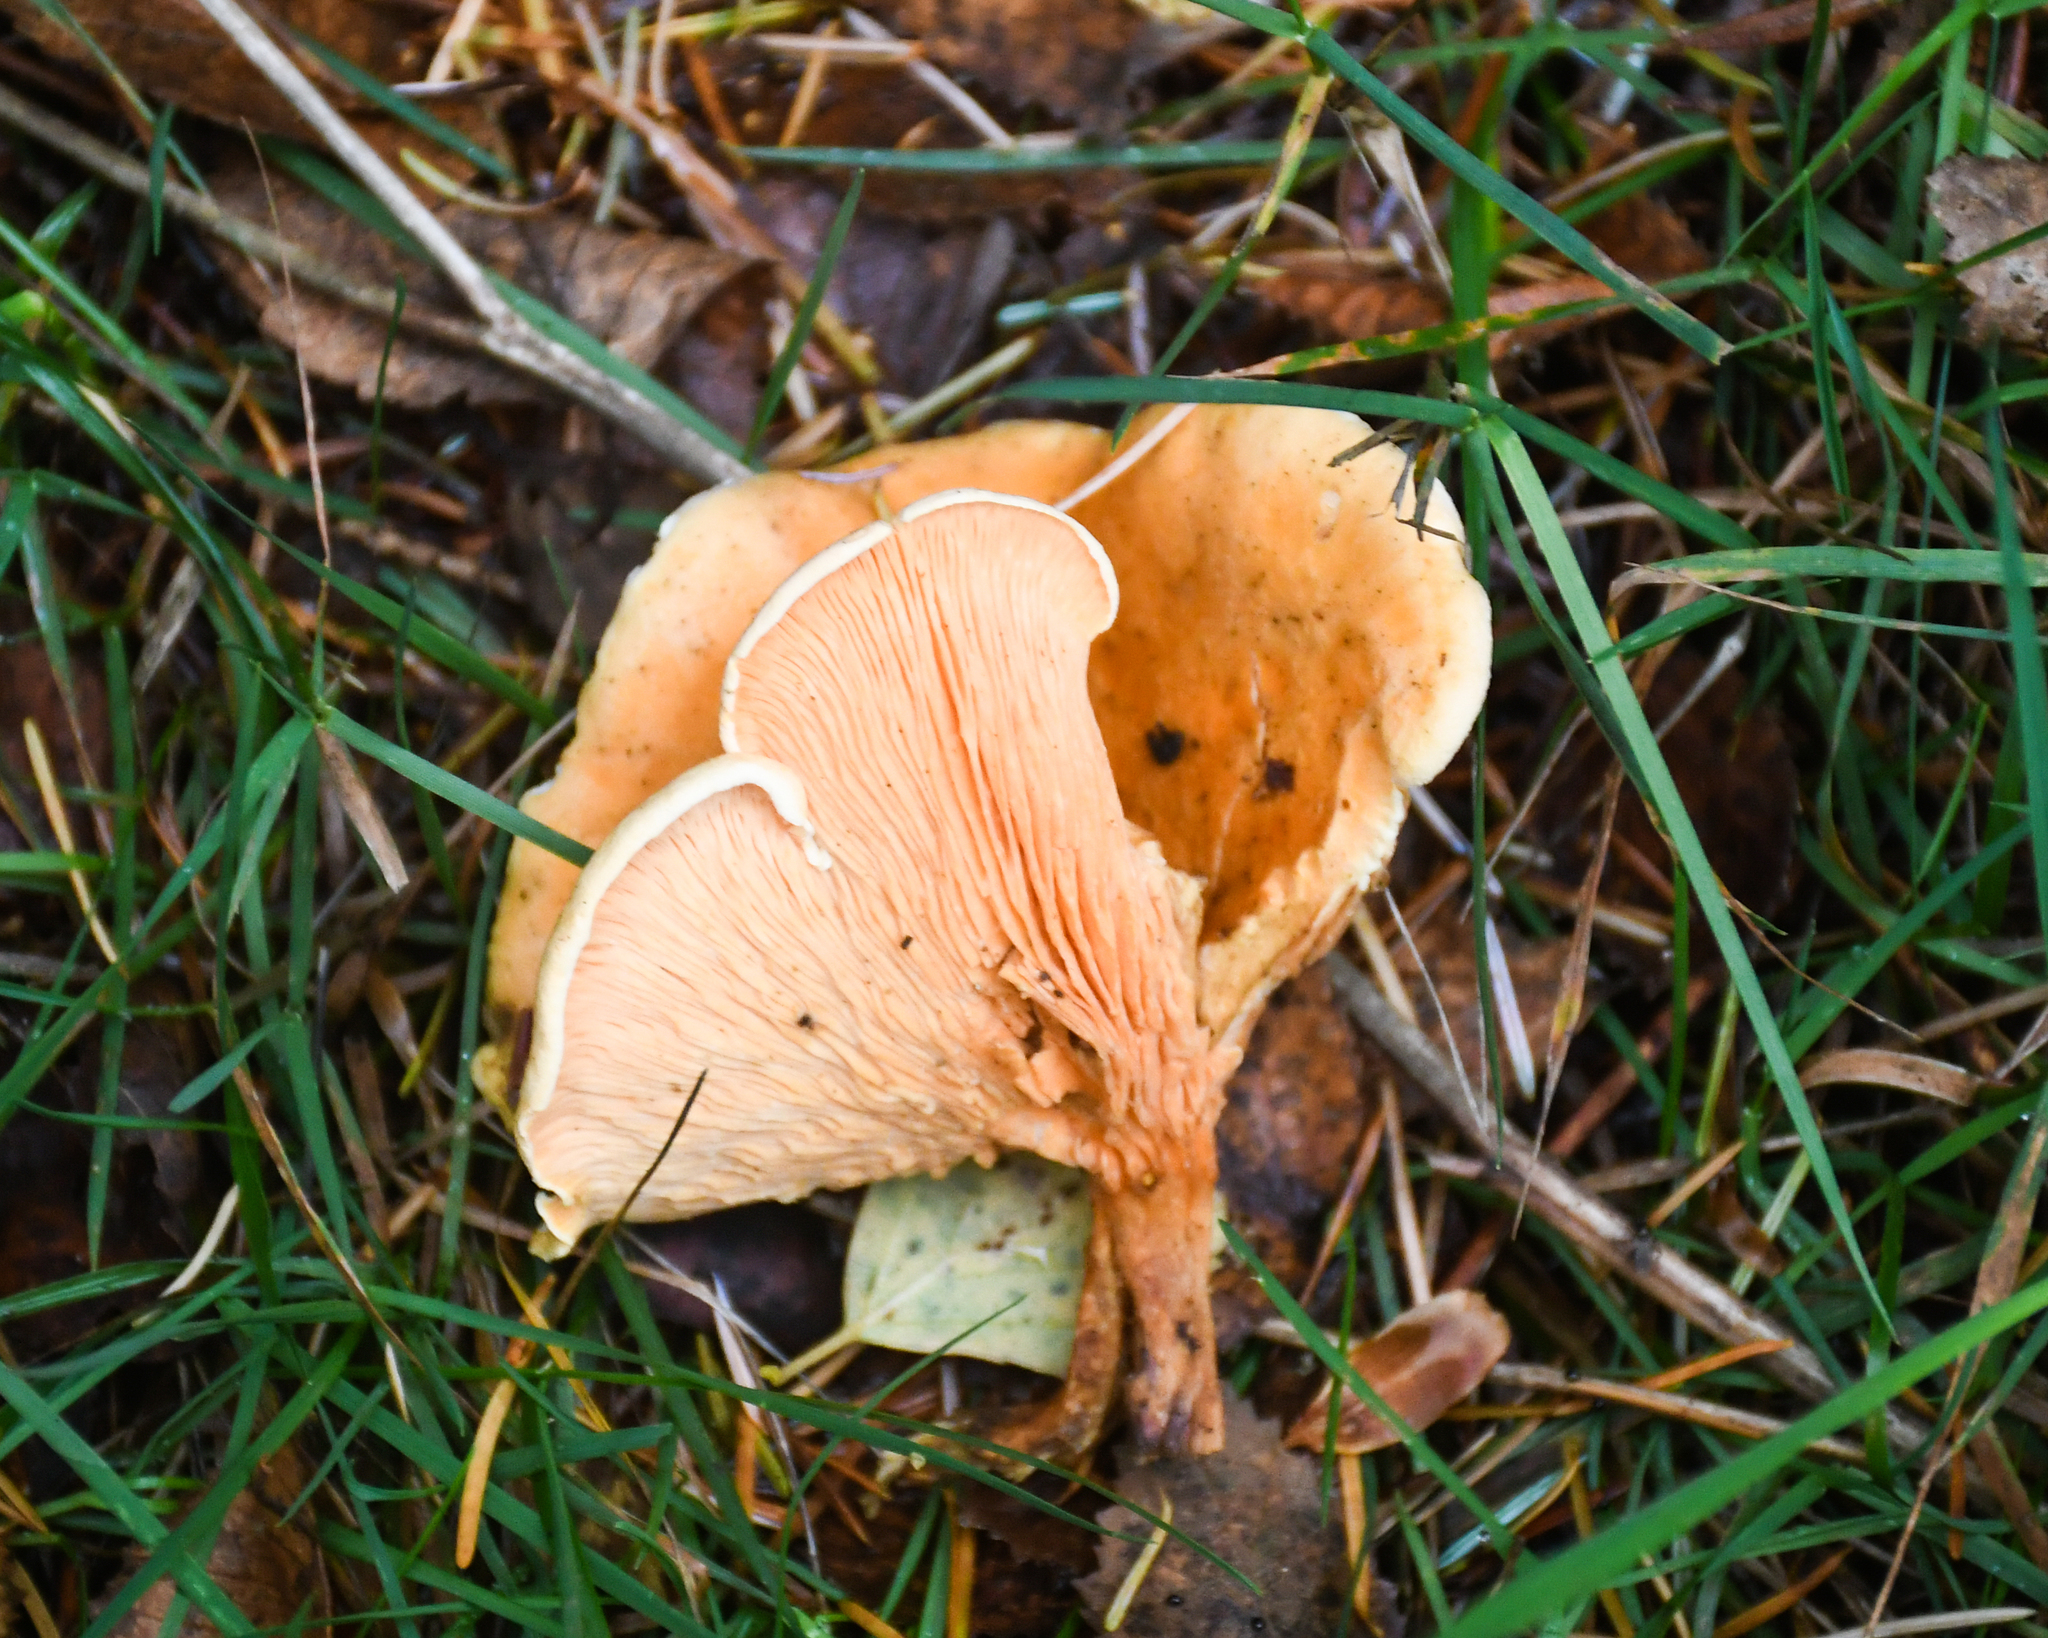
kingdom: Fungi
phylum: Basidiomycota
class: Agaricomycetes
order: Boletales
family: Hygrophoropsidaceae
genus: Hygrophoropsis
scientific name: Hygrophoropsis aurantiaca
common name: False chanterelle
